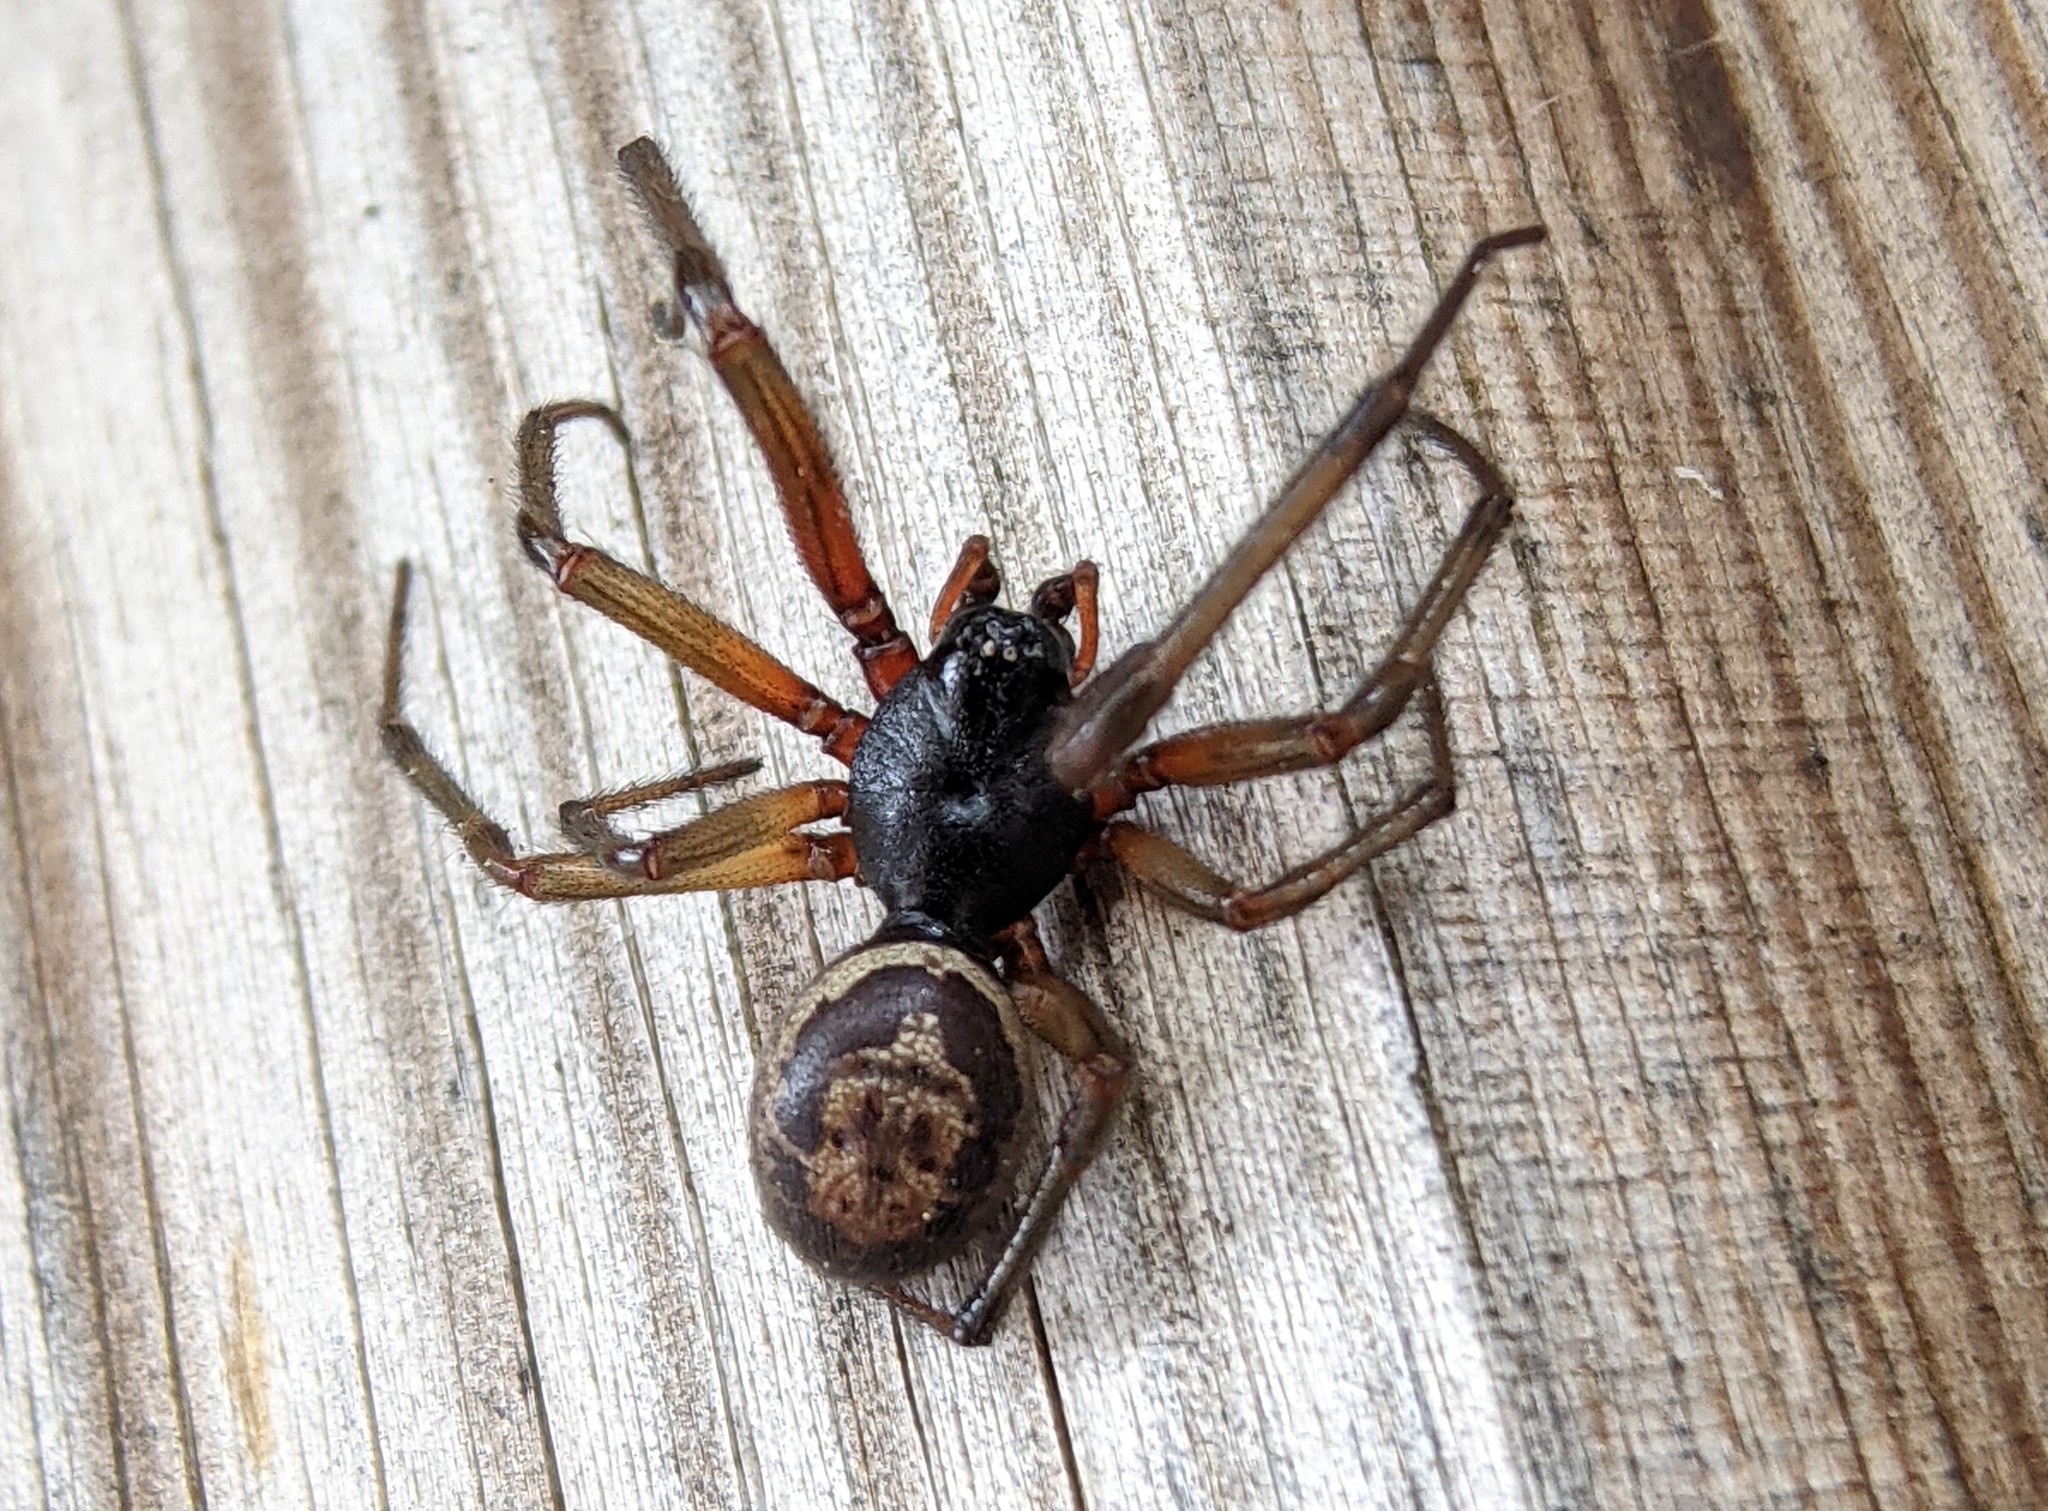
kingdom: Animalia
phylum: Arthropoda
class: Arachnida
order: Araneae
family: Theridiidae
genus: Steatoda
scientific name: Steatoda nobilis
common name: Cobweb weaver
